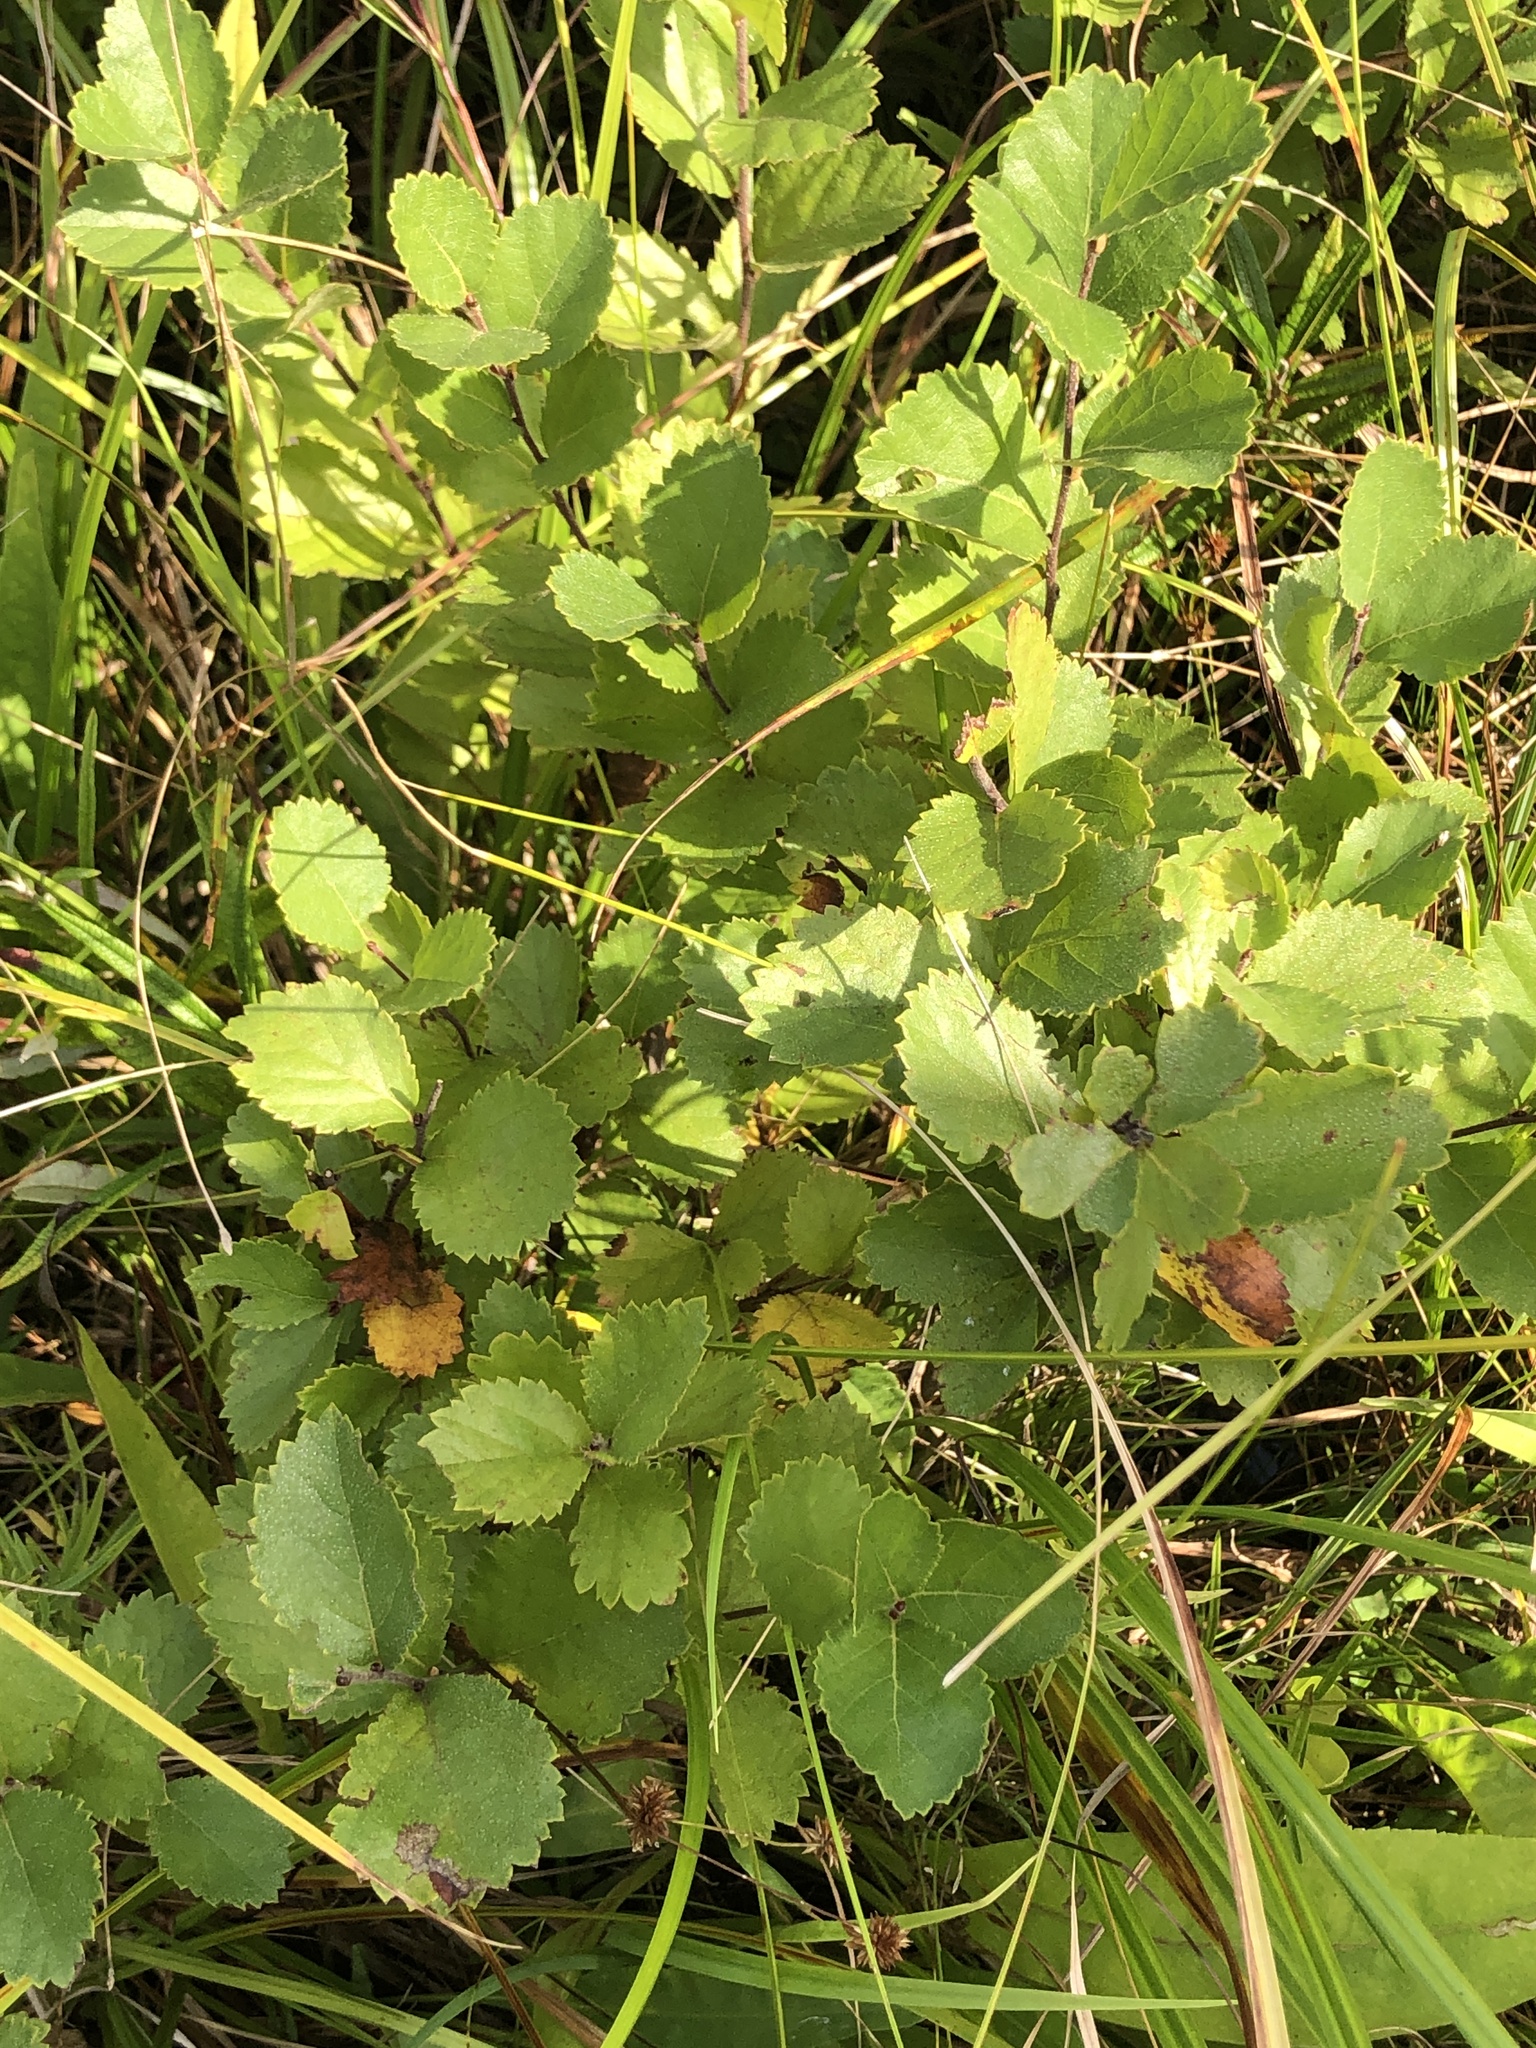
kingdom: Plantae
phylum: Tracheophyta
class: Magnoliopsida
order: Fagales
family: Betulaceae
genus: Betula
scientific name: Betula pumila
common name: Bog birch
